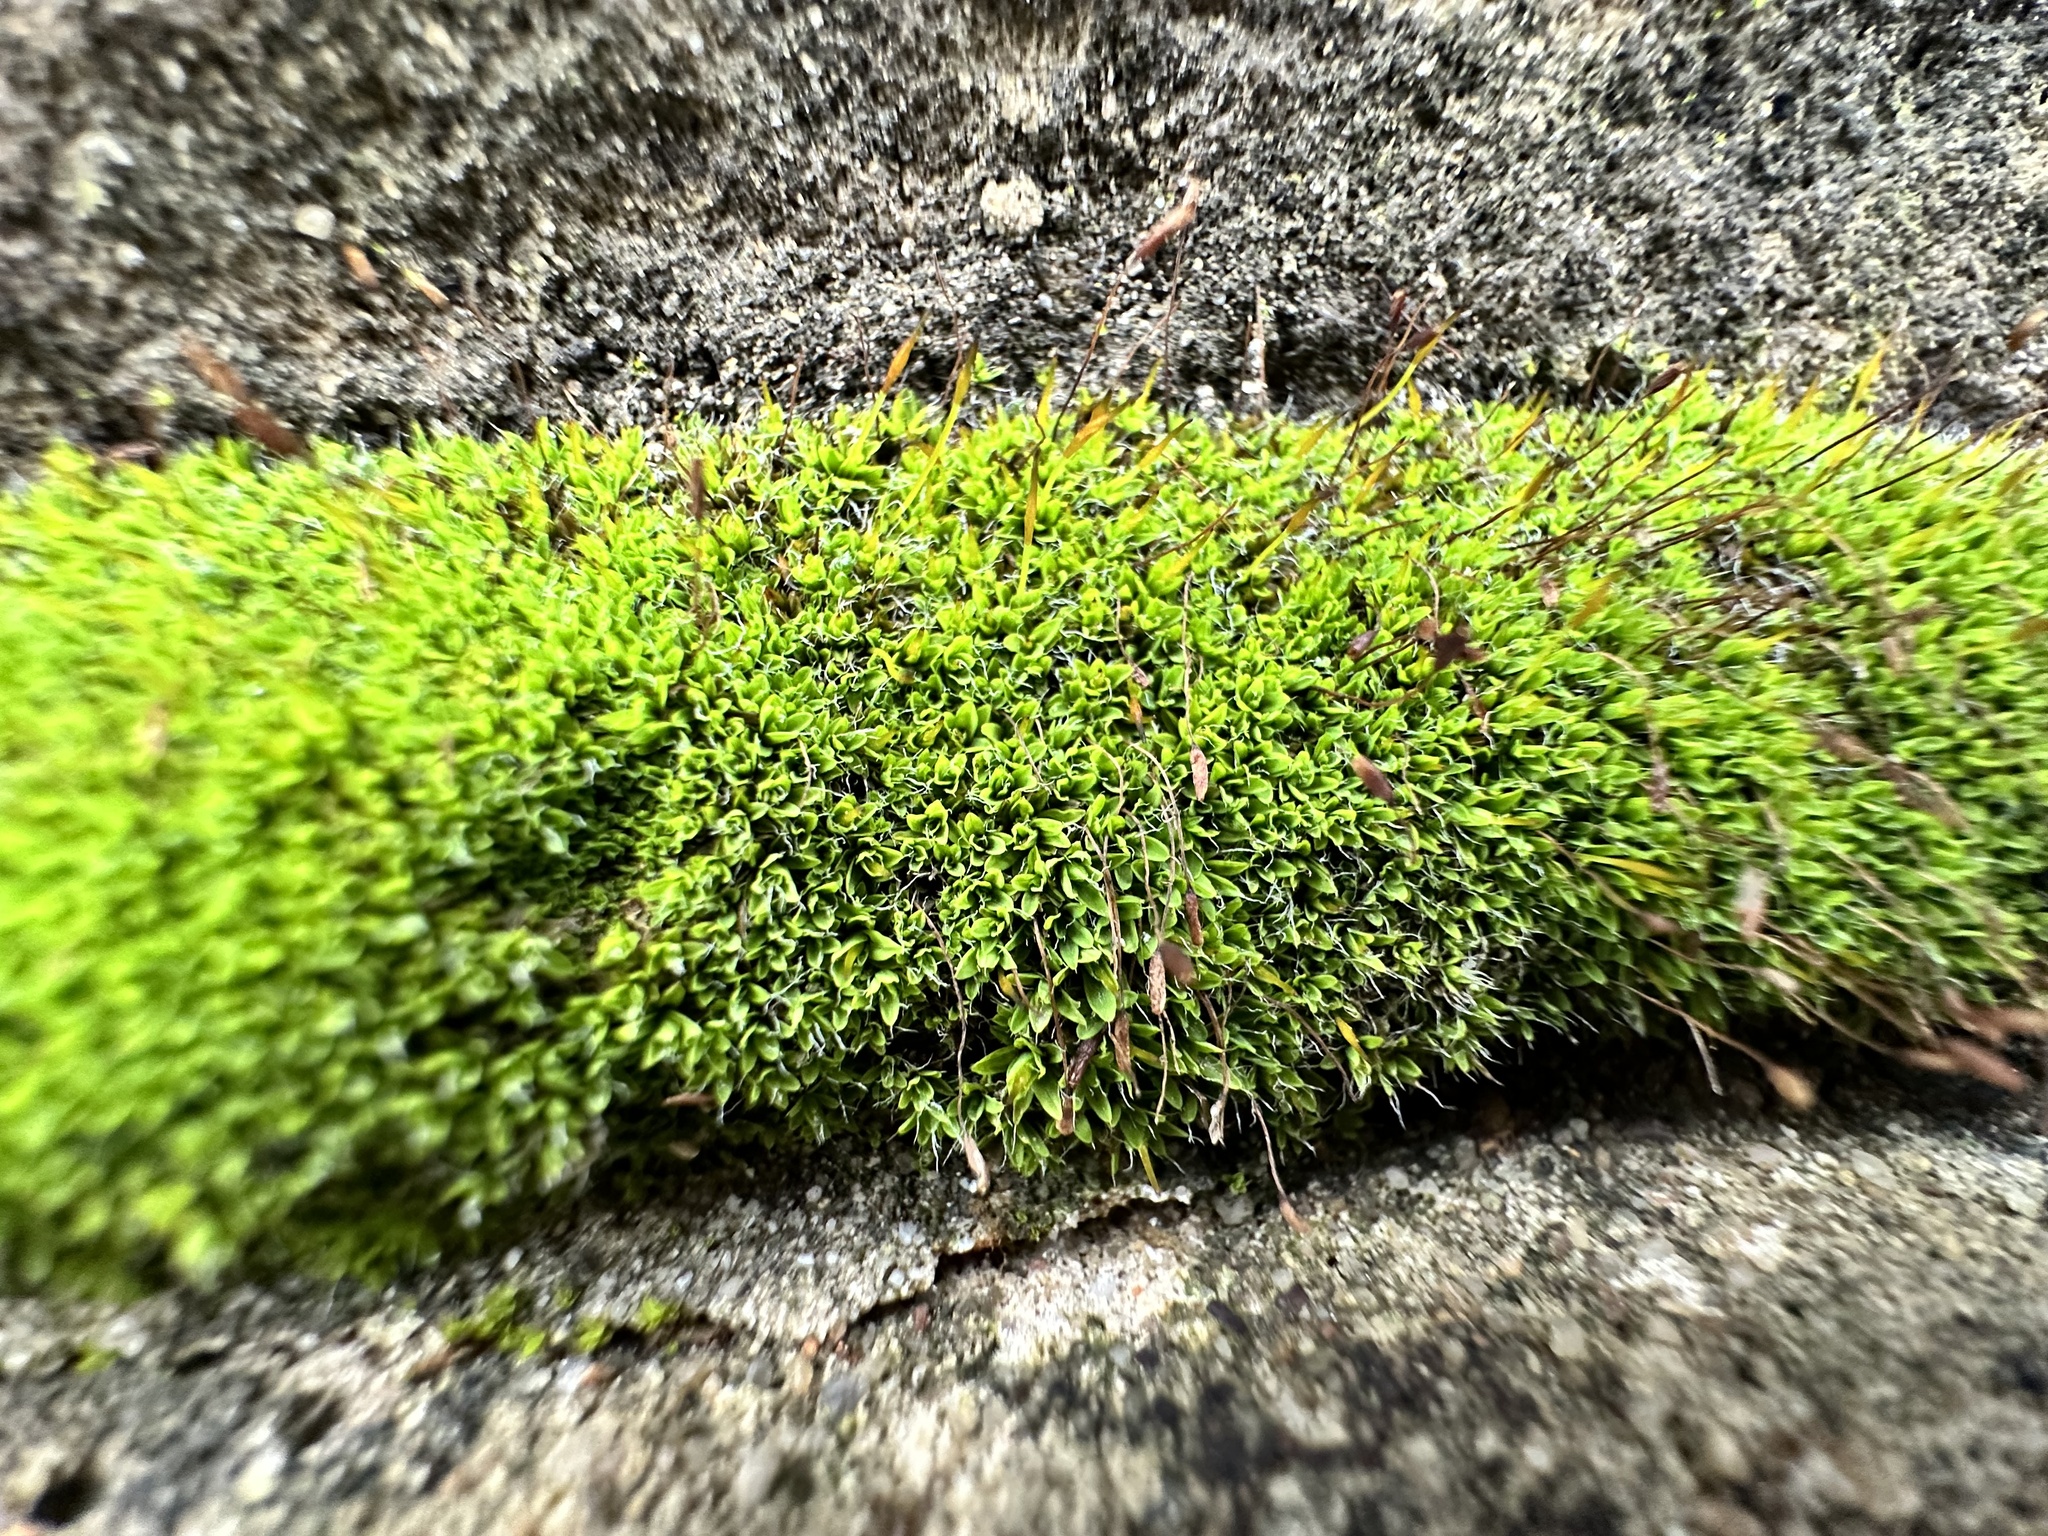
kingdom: Plantae
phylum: Bryophyta
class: Bryopsida
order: Pottiales
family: Pottiaceae
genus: Tortula
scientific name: Tortula muralis
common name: Wall screw-moss
